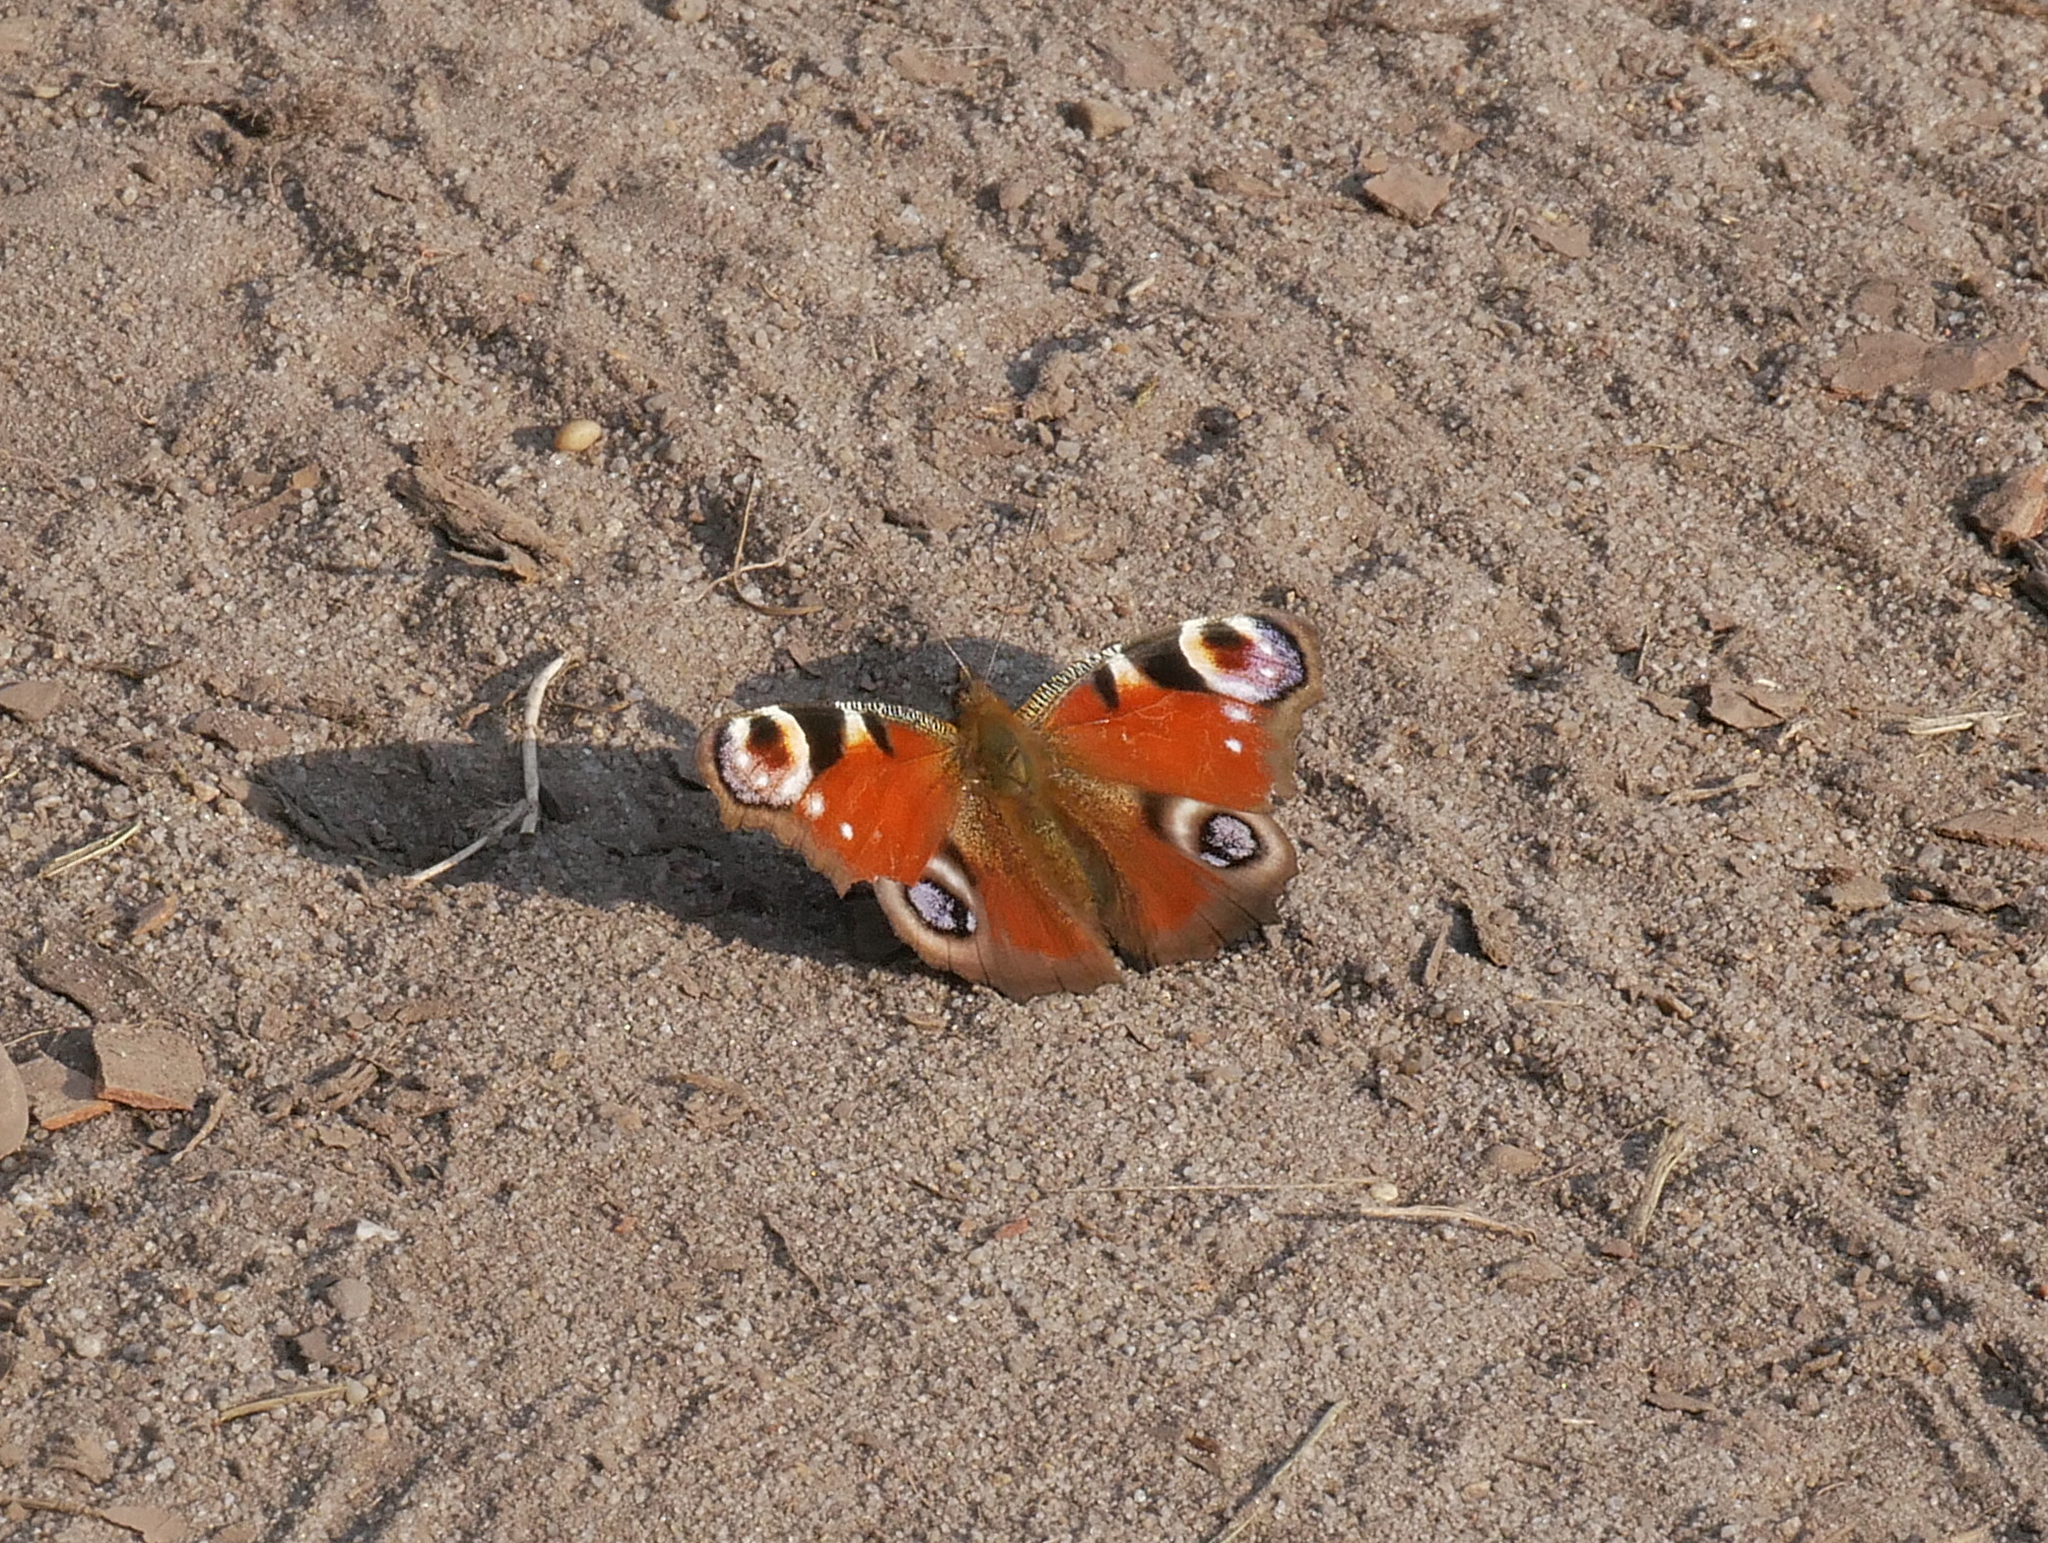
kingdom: Animalia
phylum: Arthropoda
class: Insecta
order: Lepidoptera
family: Nymphalidae
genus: Aglais
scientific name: Aglais io
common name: Peacock
